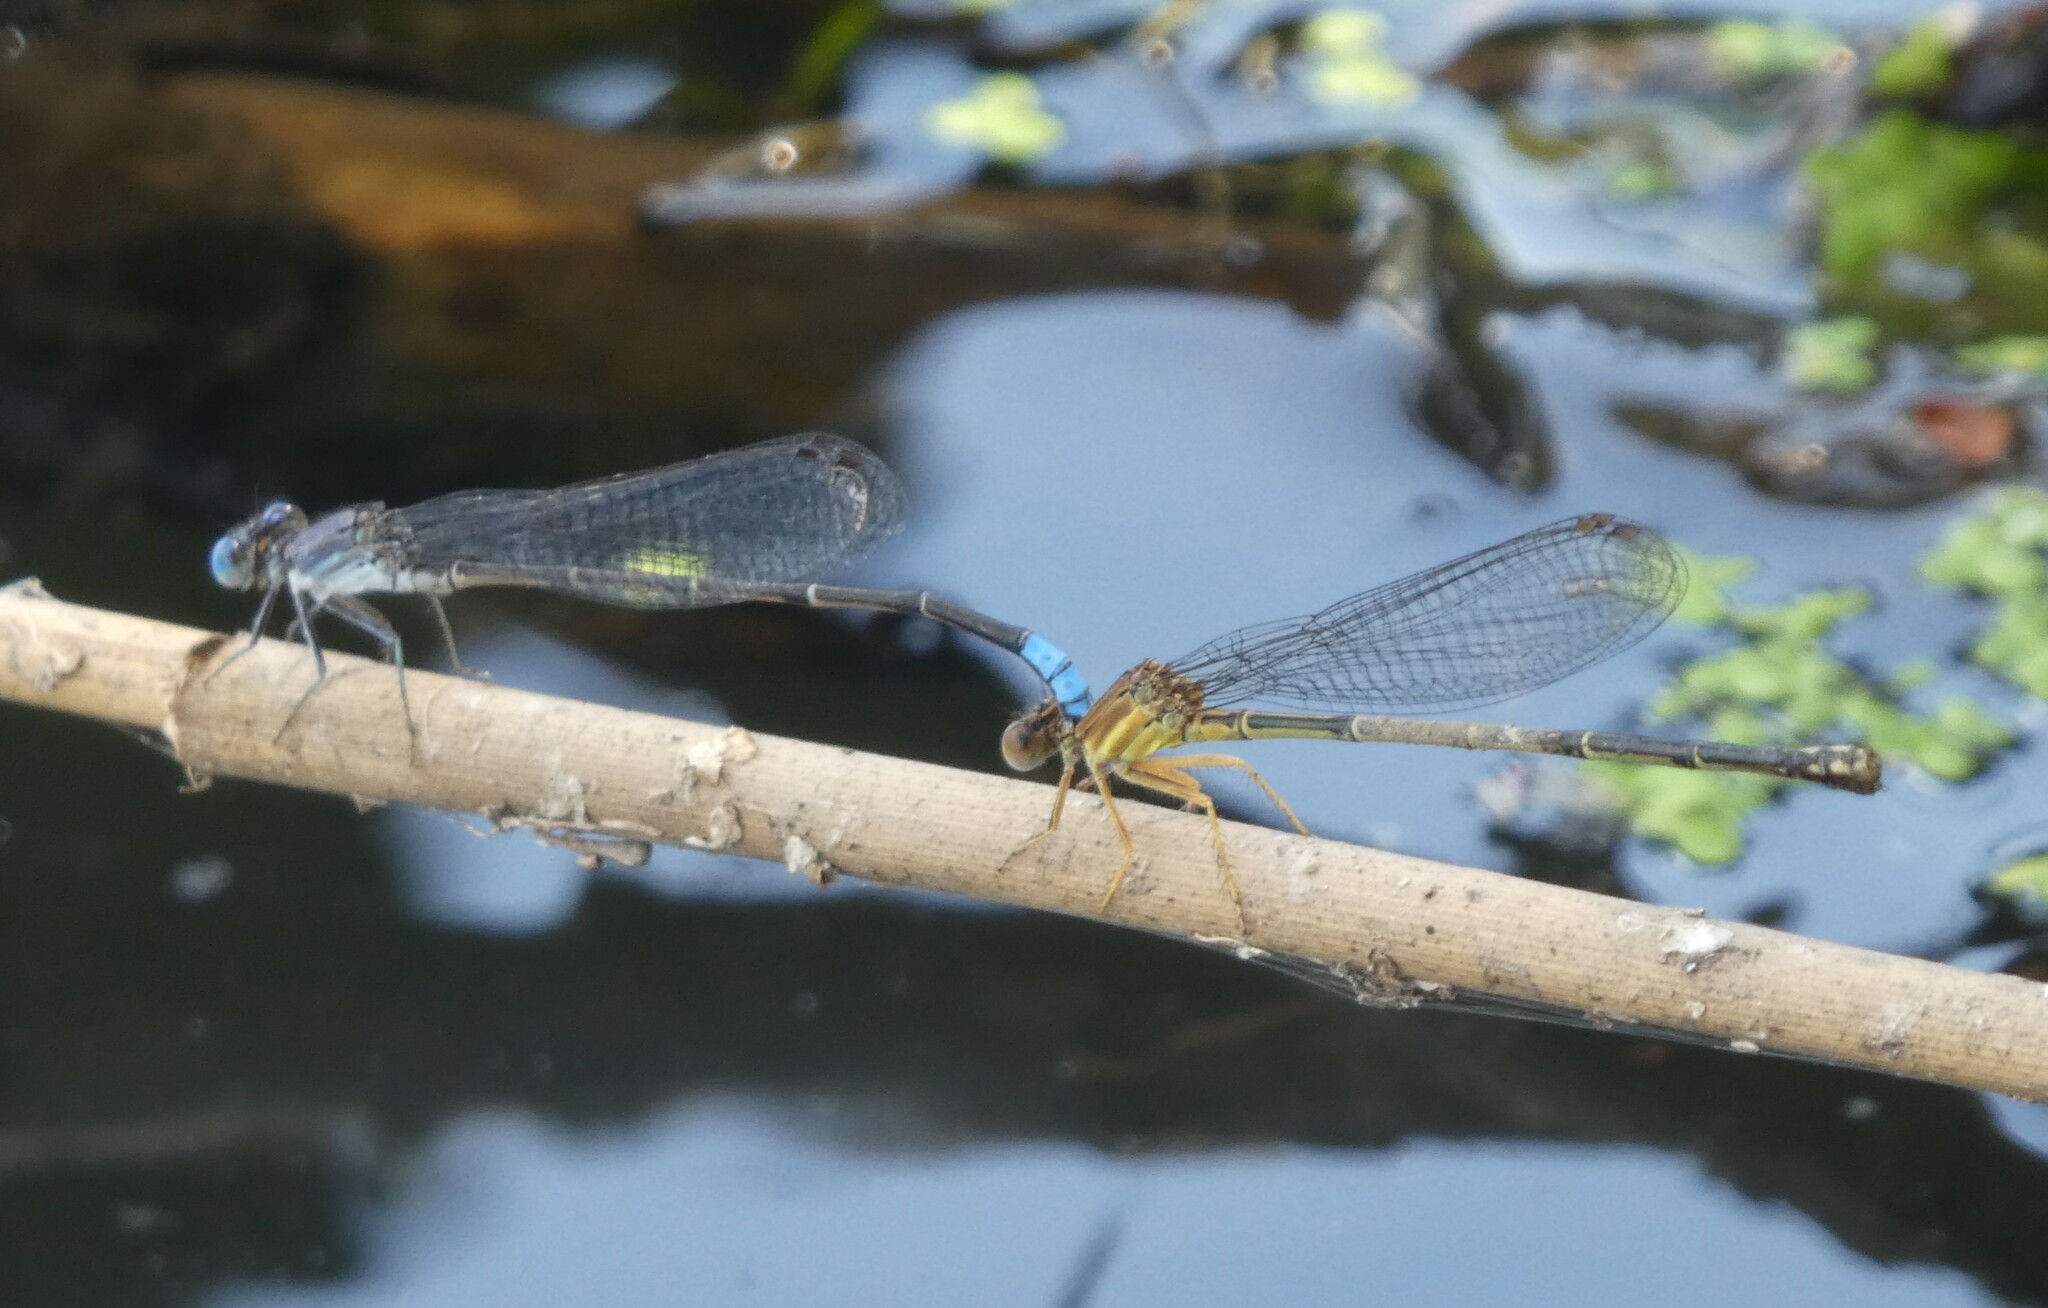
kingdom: Animalia
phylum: Arthropoda
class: Insecta
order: Odonata
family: Coenagrionidae
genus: Argia
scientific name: Argia apicalis
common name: Blue-fronted dancer
